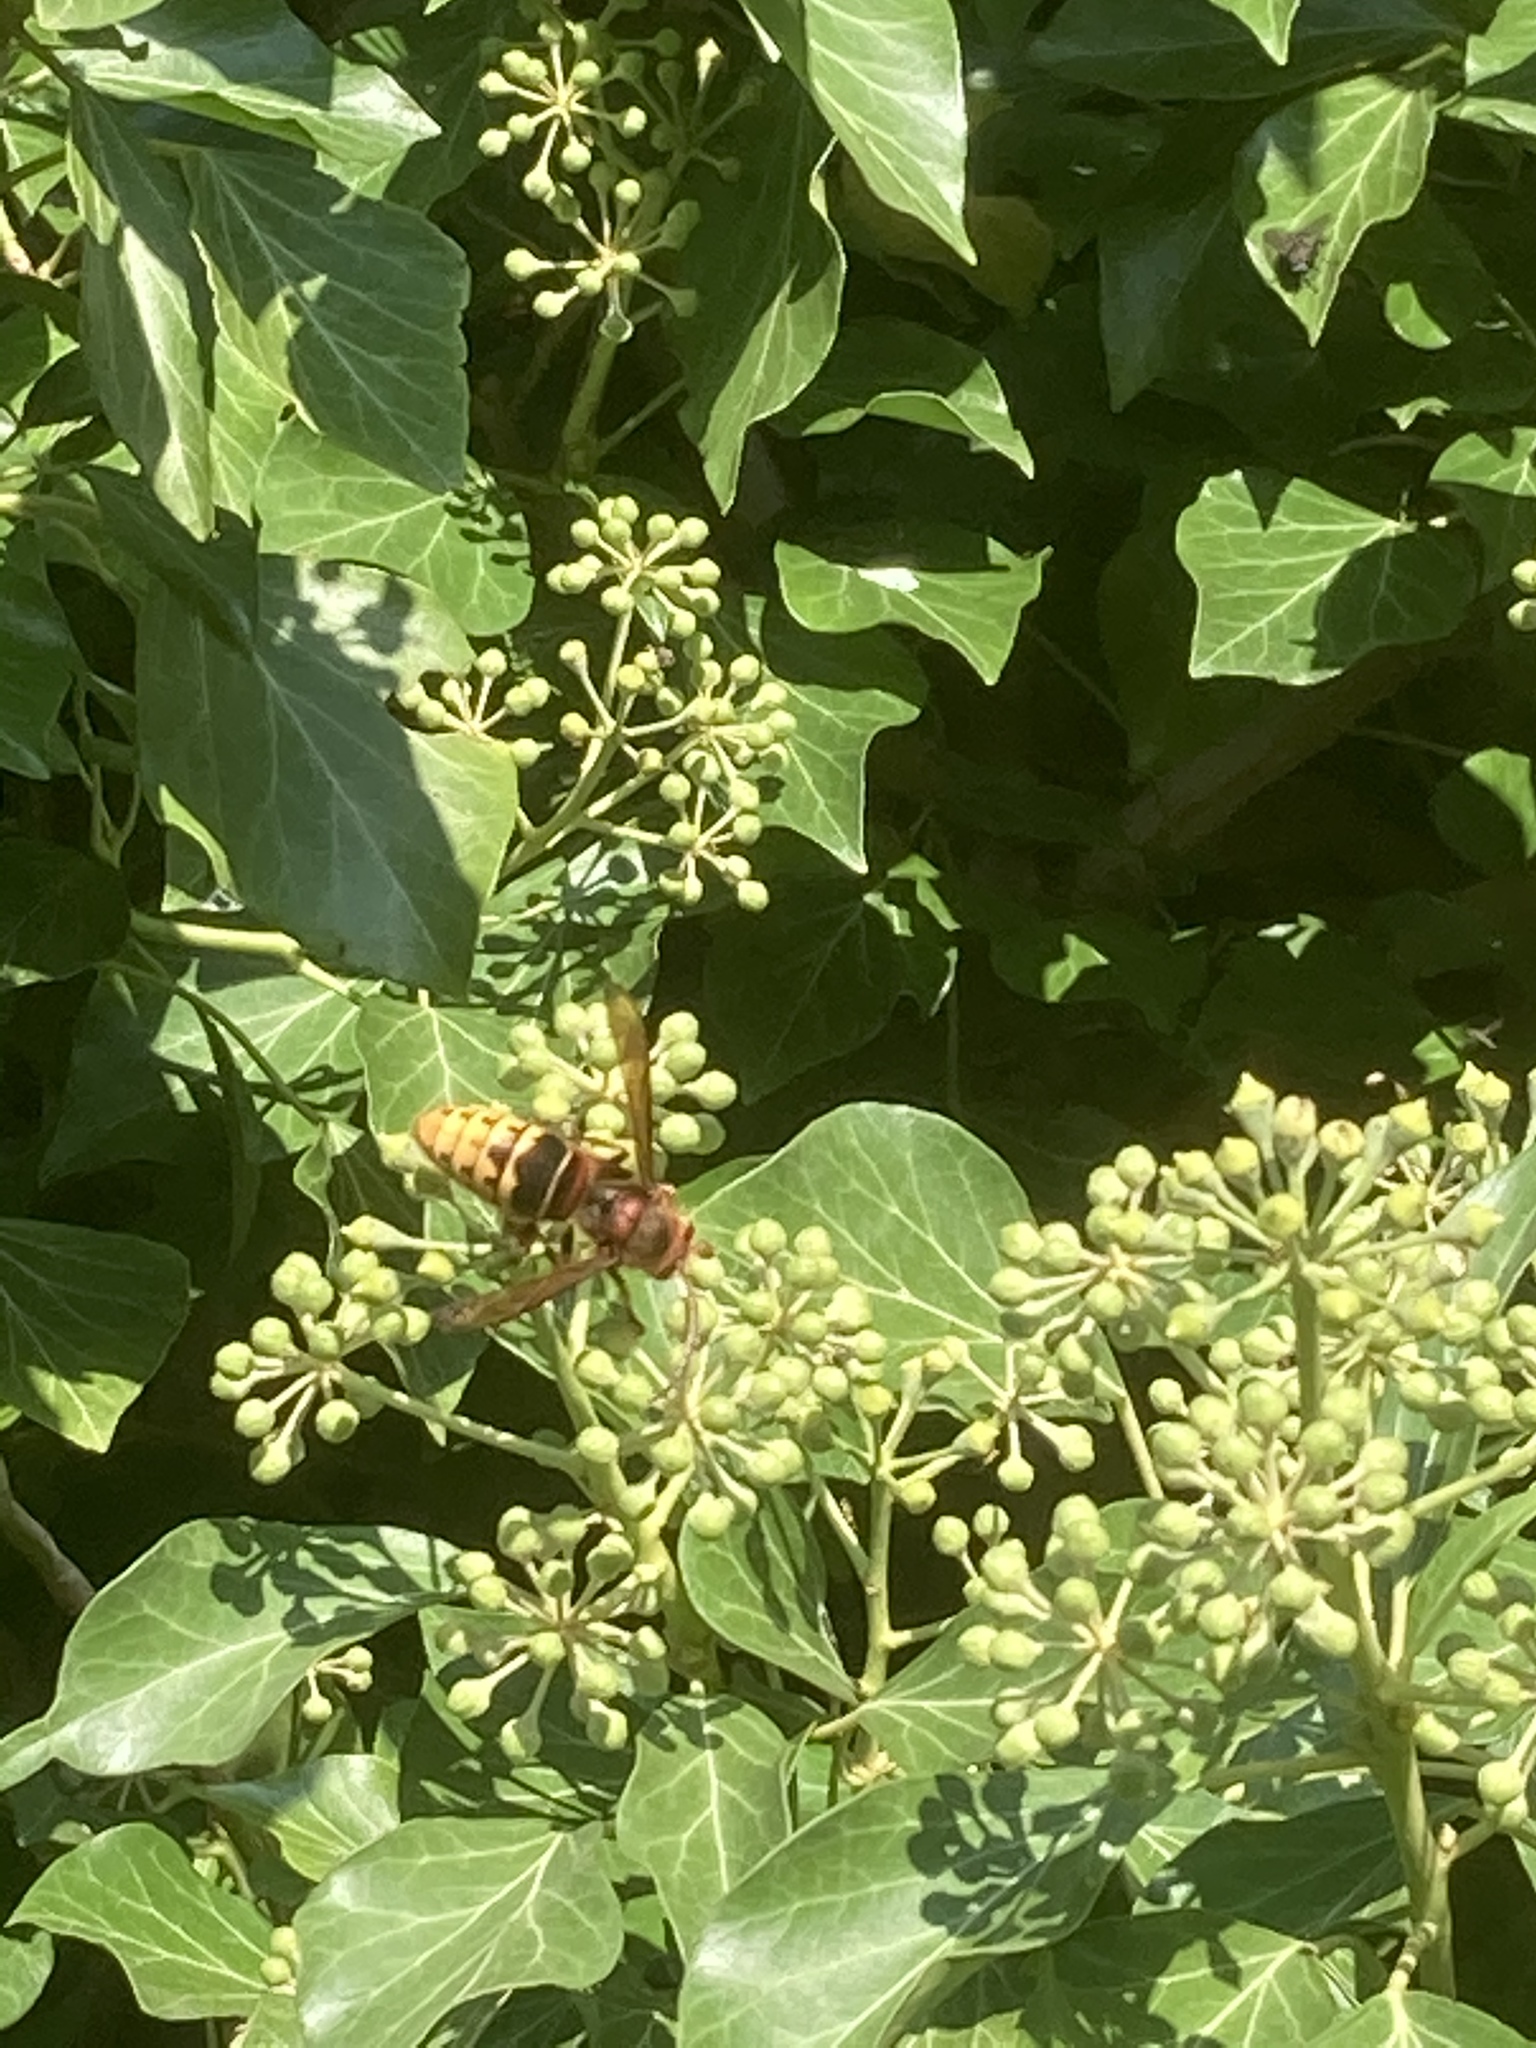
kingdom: Animalia
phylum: Arthropoda
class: Insecta
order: Hymenoptera
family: Vespidae
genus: Vespa
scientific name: Vespa crabro
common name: Hornet
